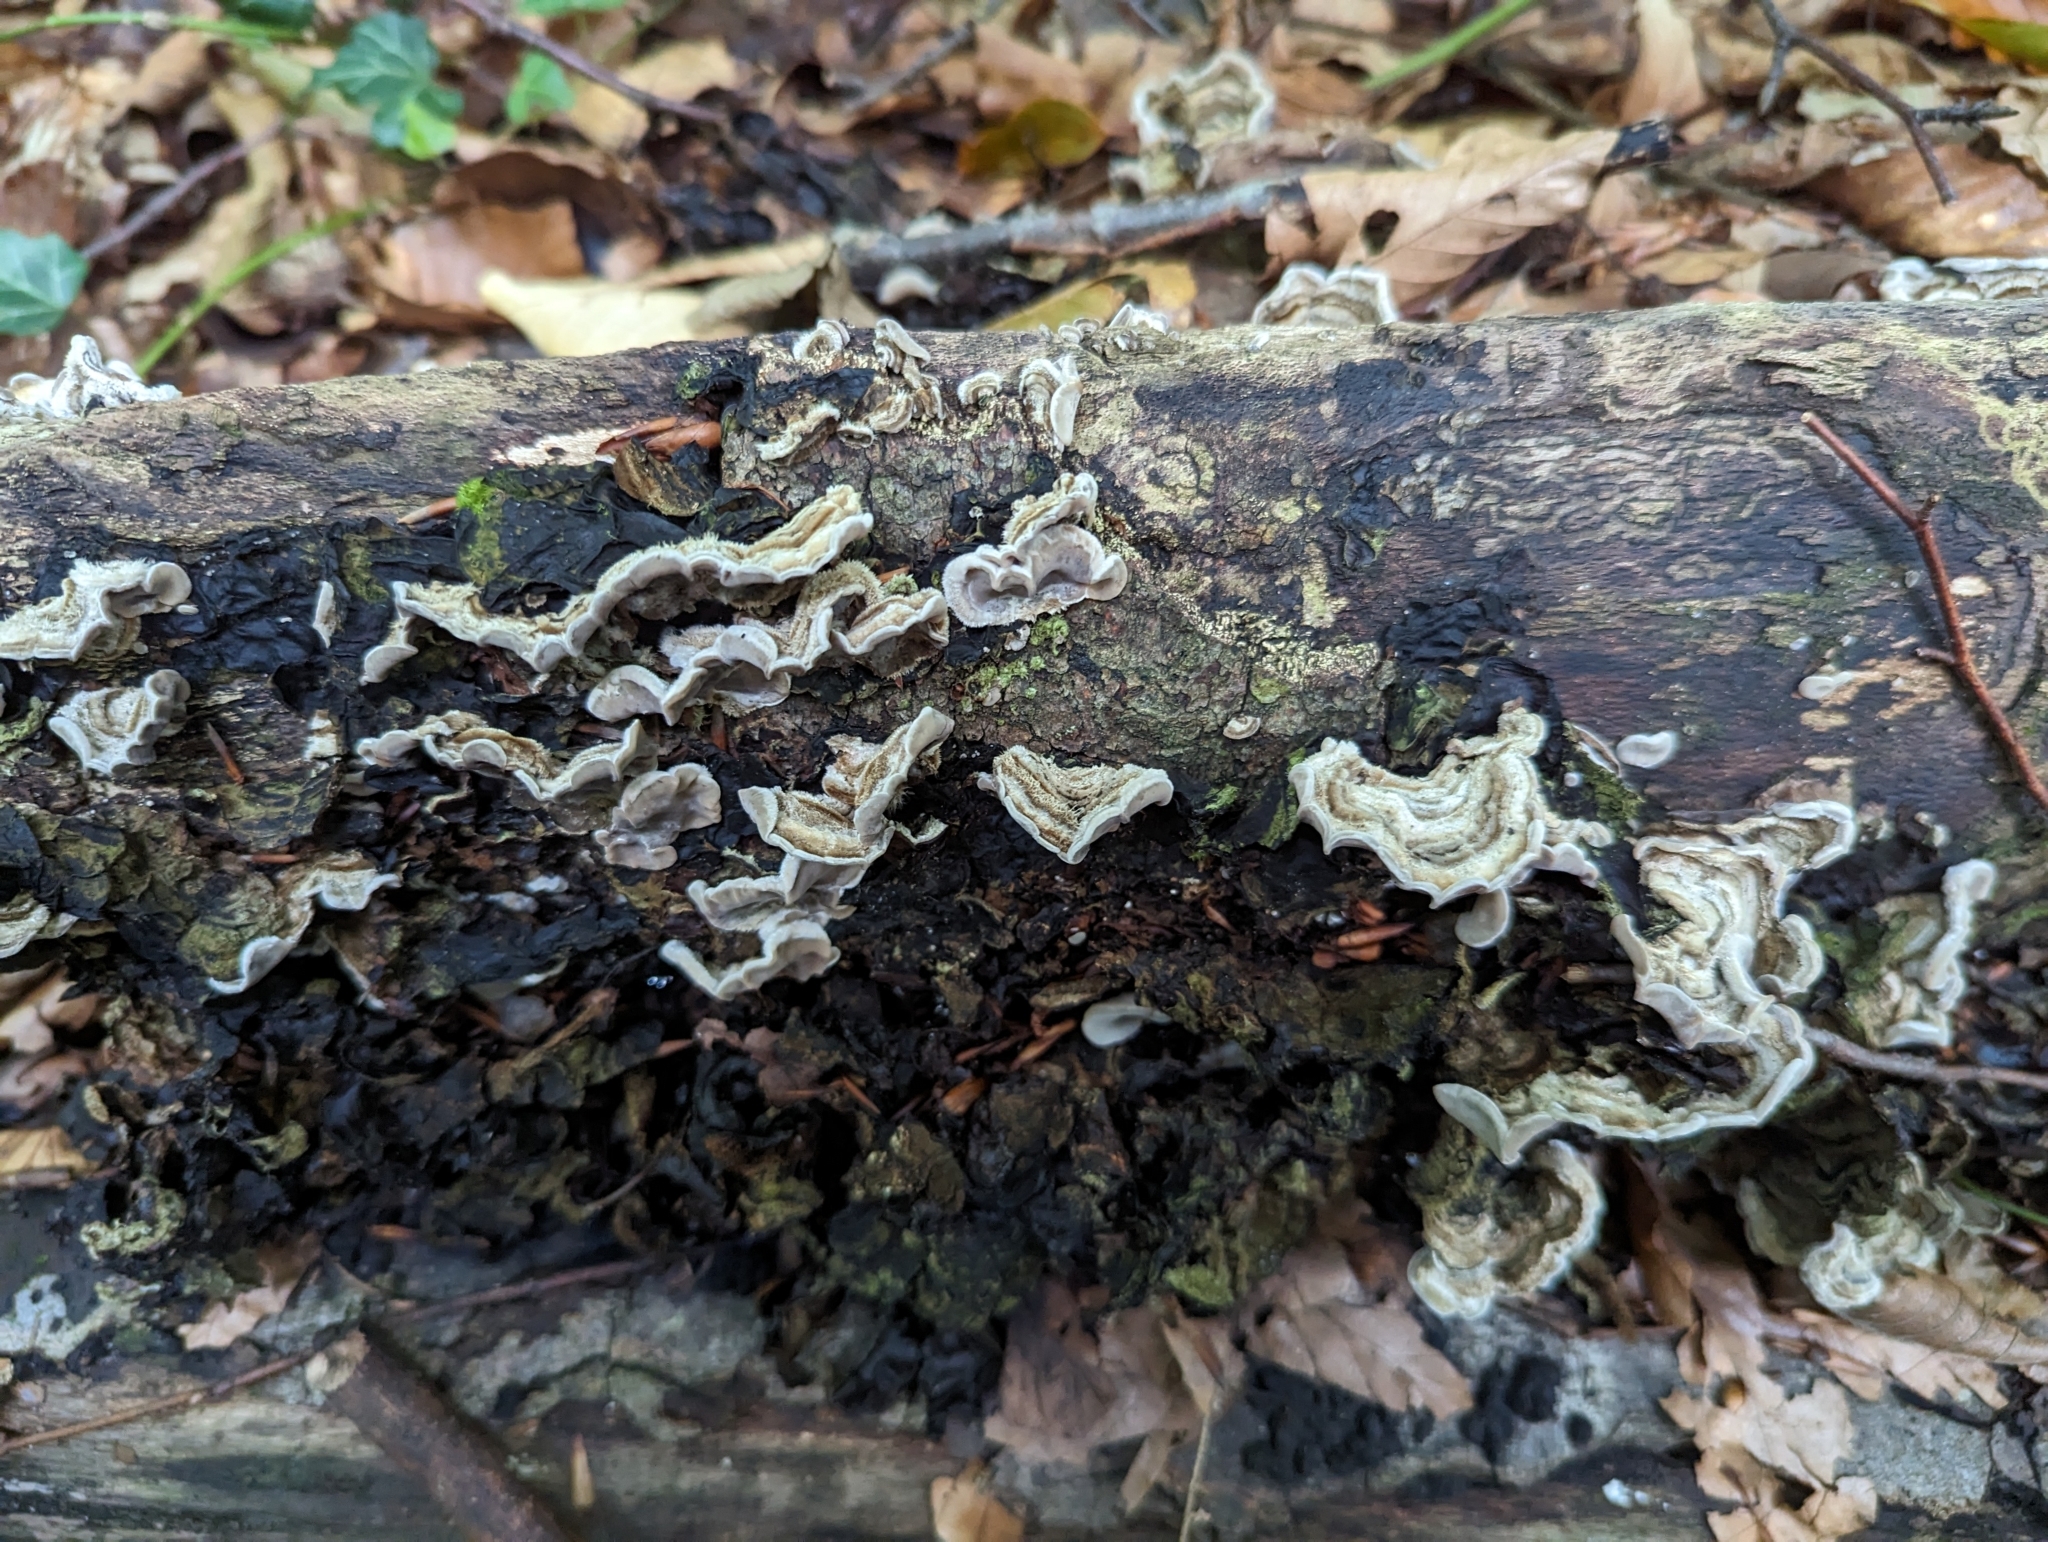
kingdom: Fungi
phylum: Basidiomycota
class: Agaricomycetes
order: Auriculariales
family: Auriculariaceae
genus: Auricularia
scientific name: Auricularia mesenterica
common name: Tripe fungus
